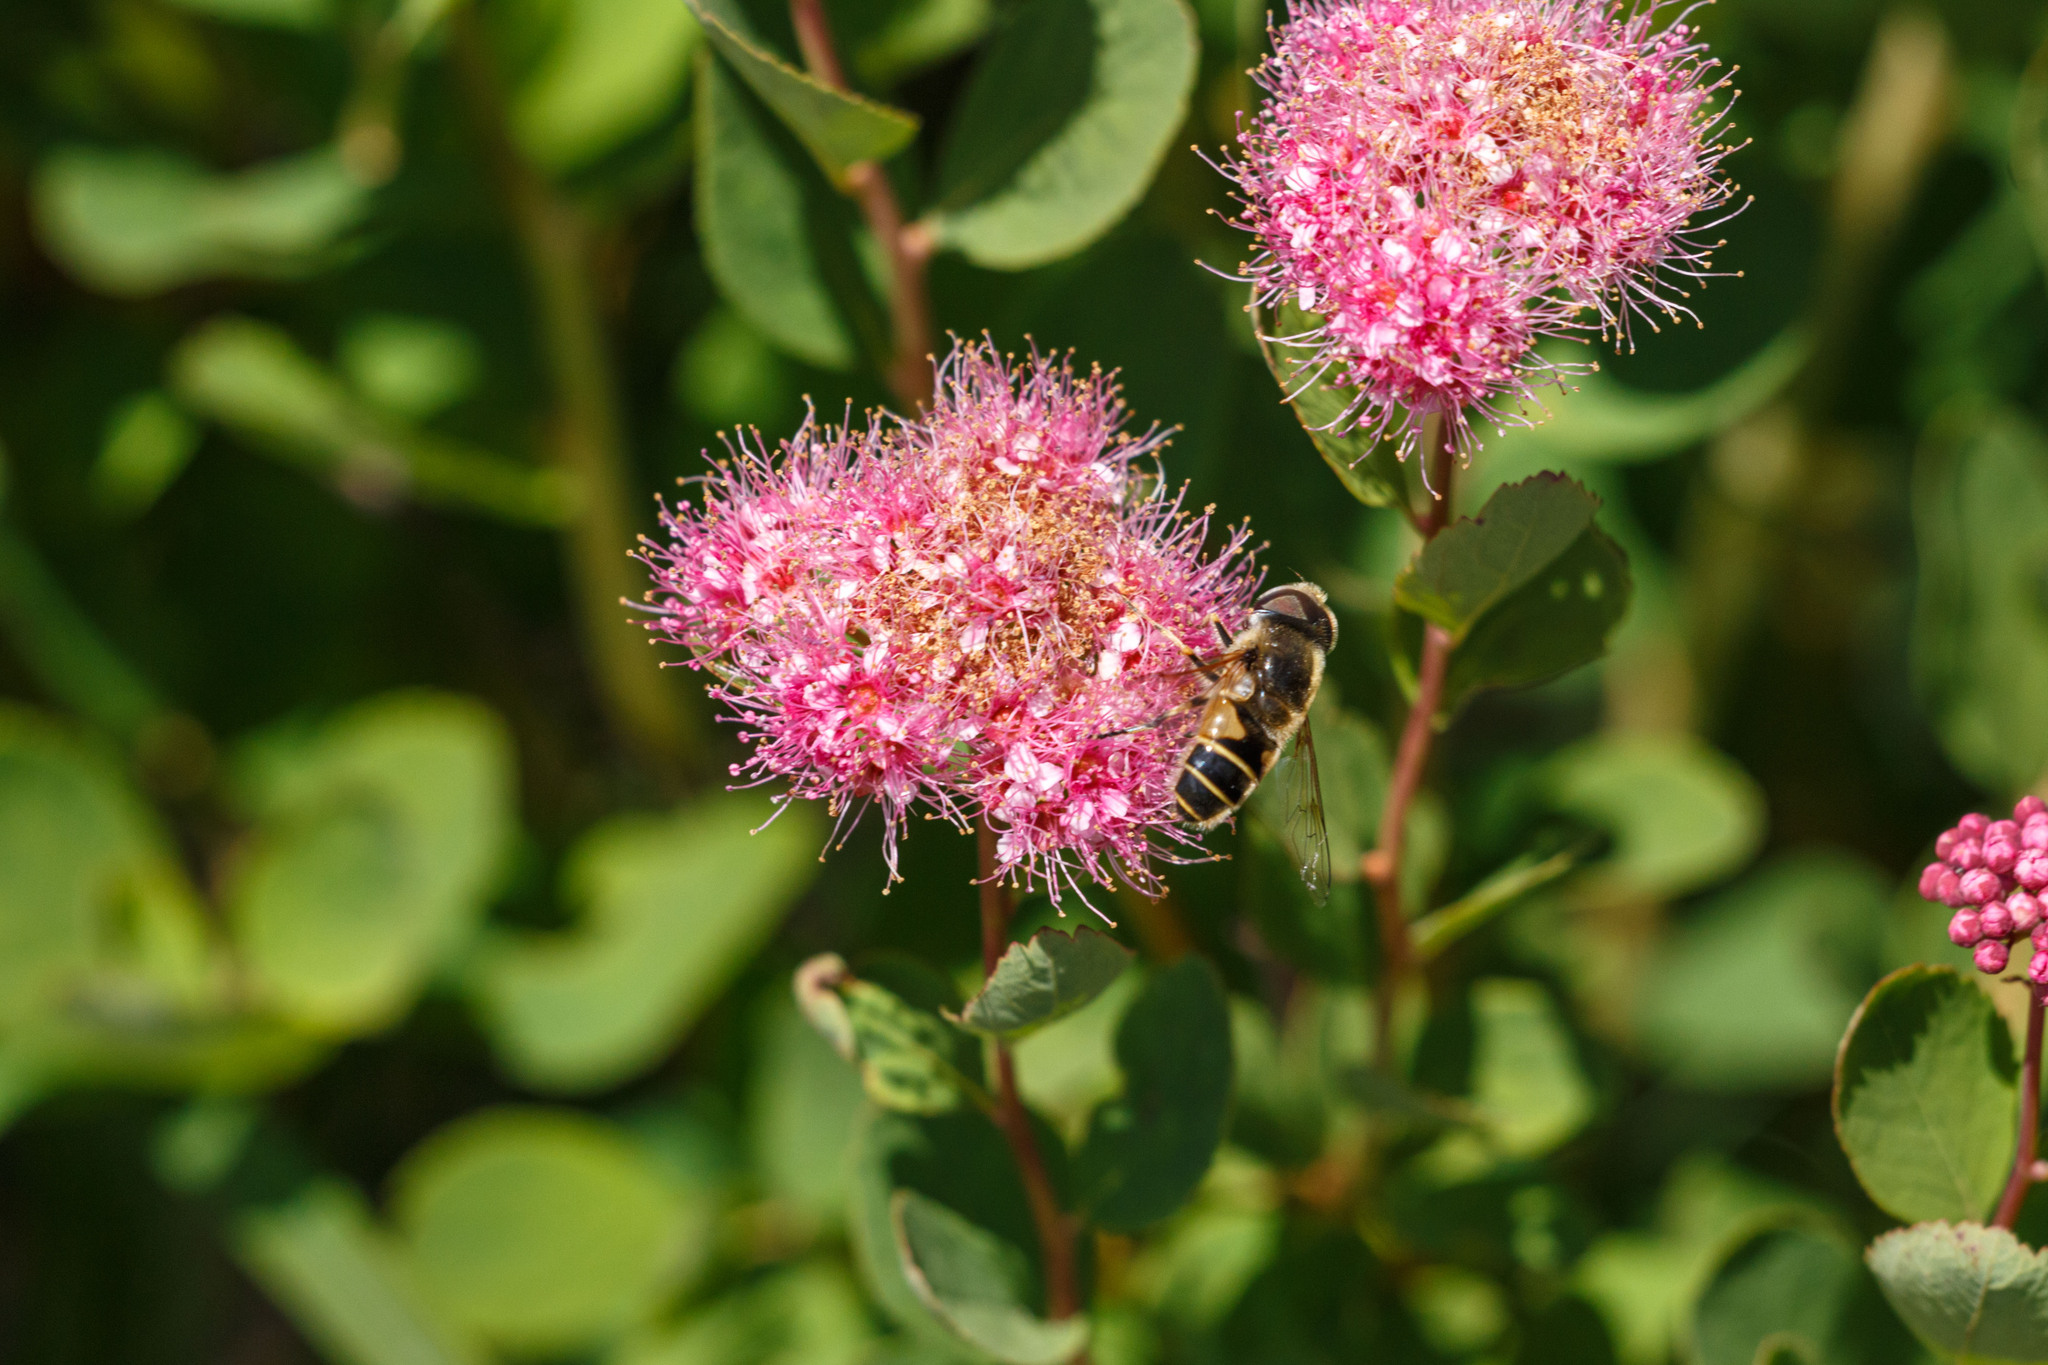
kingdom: Animalia
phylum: Arthropoda
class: Insecta
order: Diptera
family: Syrphidae
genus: Eristalis
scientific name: Eristalis hirta
